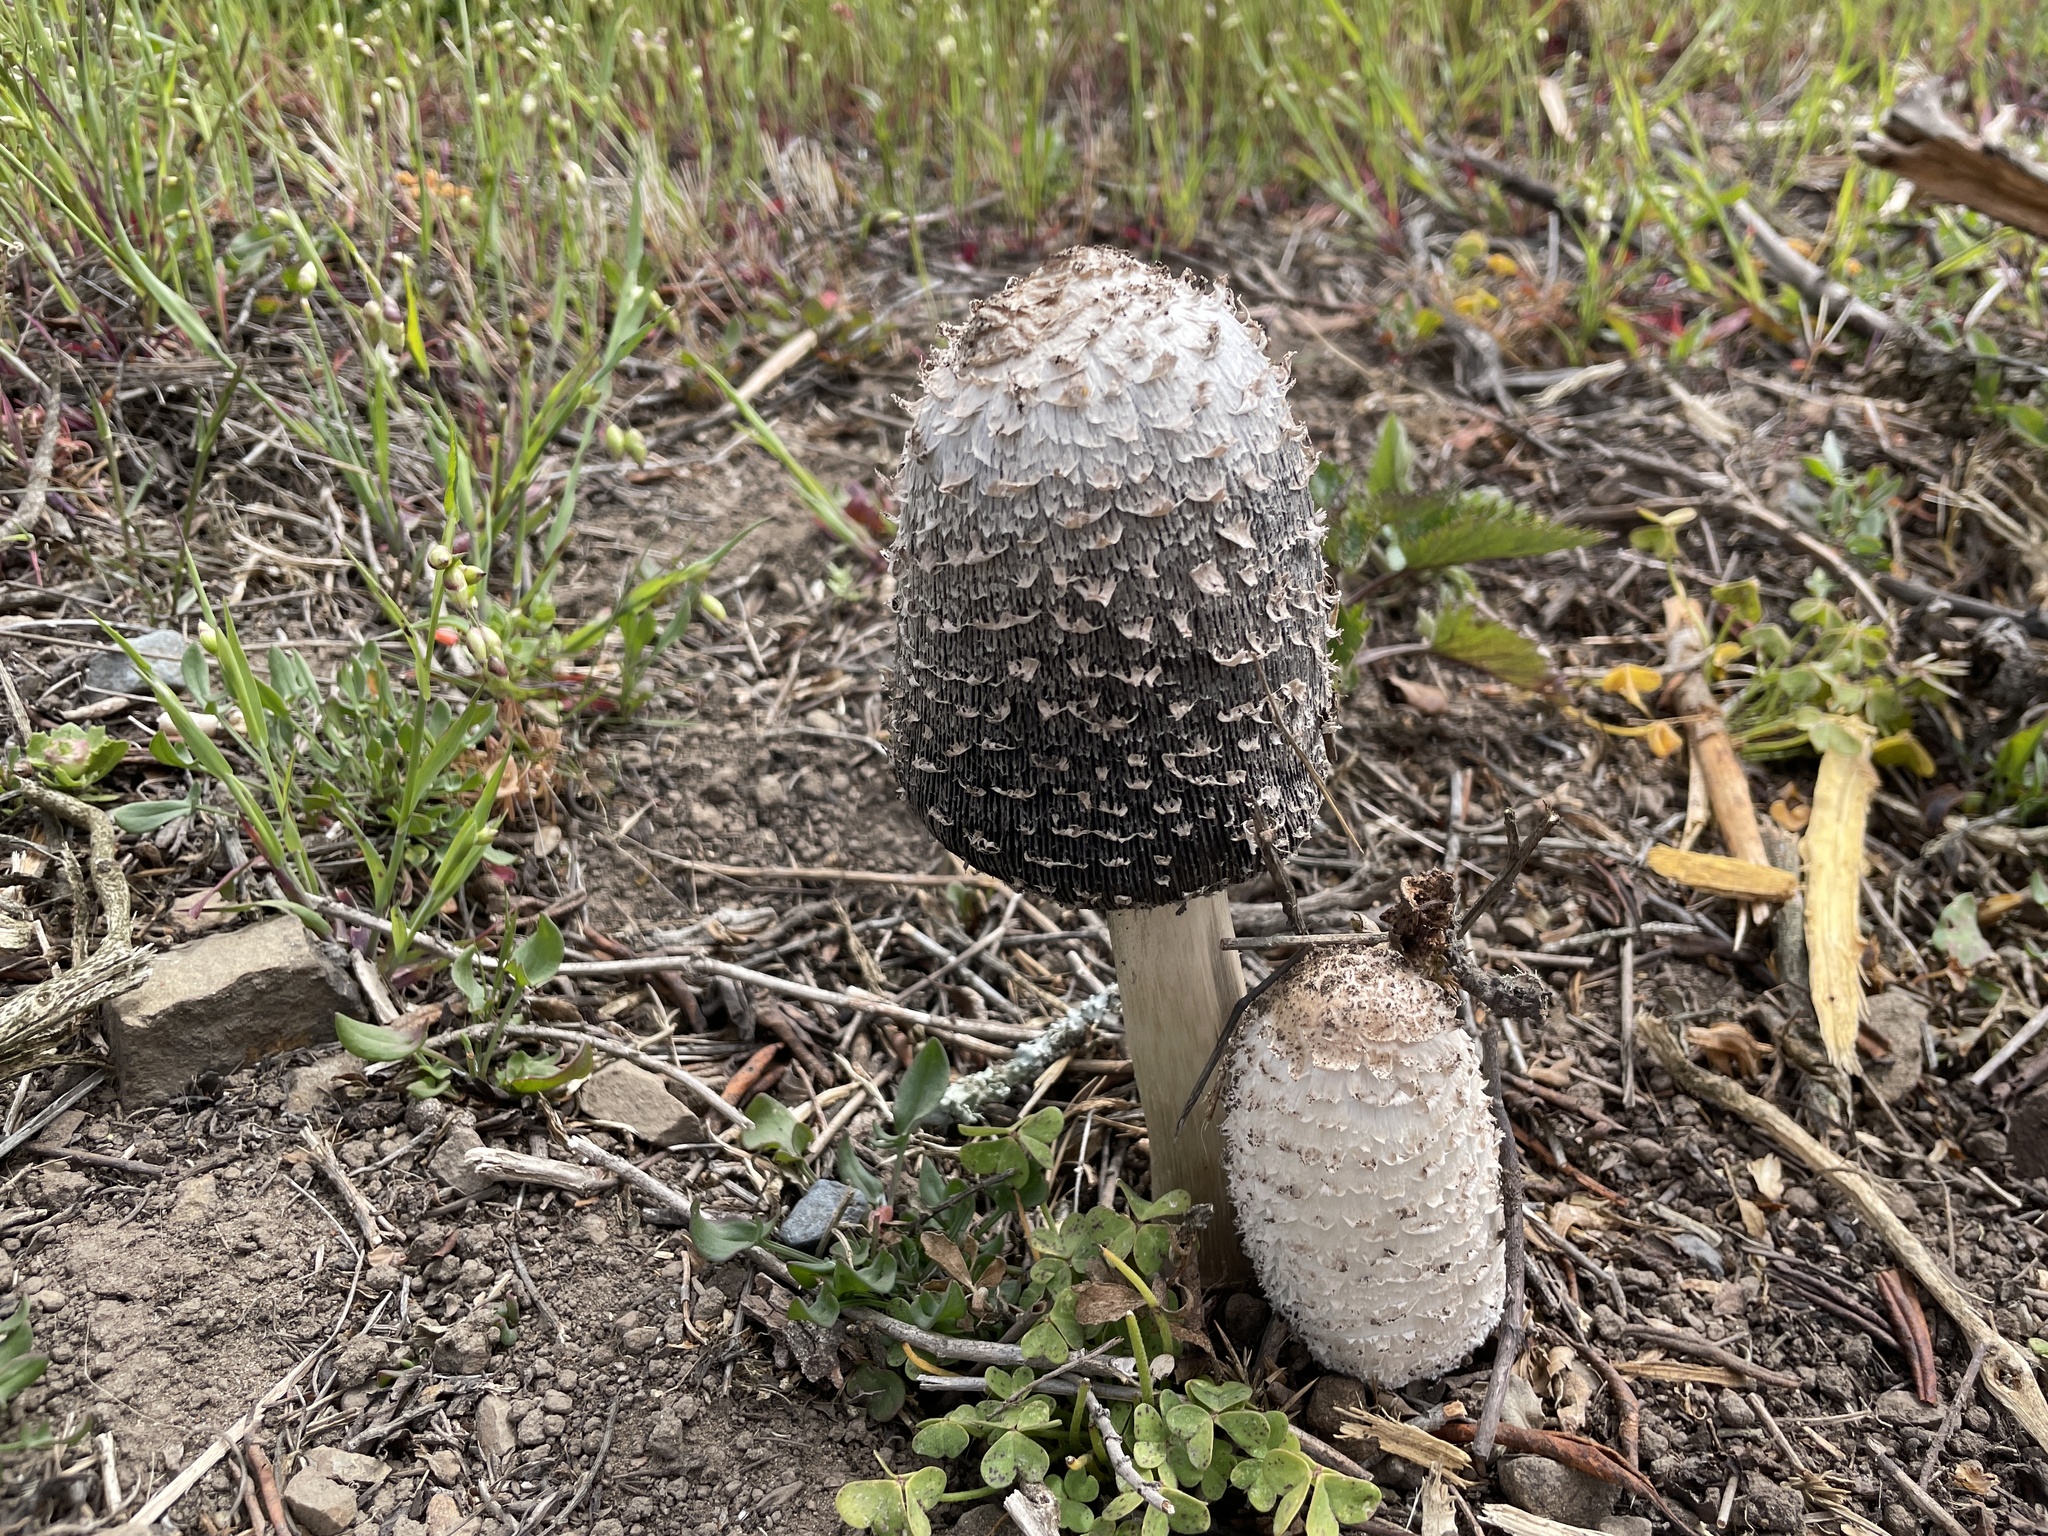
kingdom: Fungi
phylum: Basidiomycota
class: Agaricomycetes
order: Agaricales
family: Agaricaceae
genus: Coprinus
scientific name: Coprinus comatus
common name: Lawyer's wig
